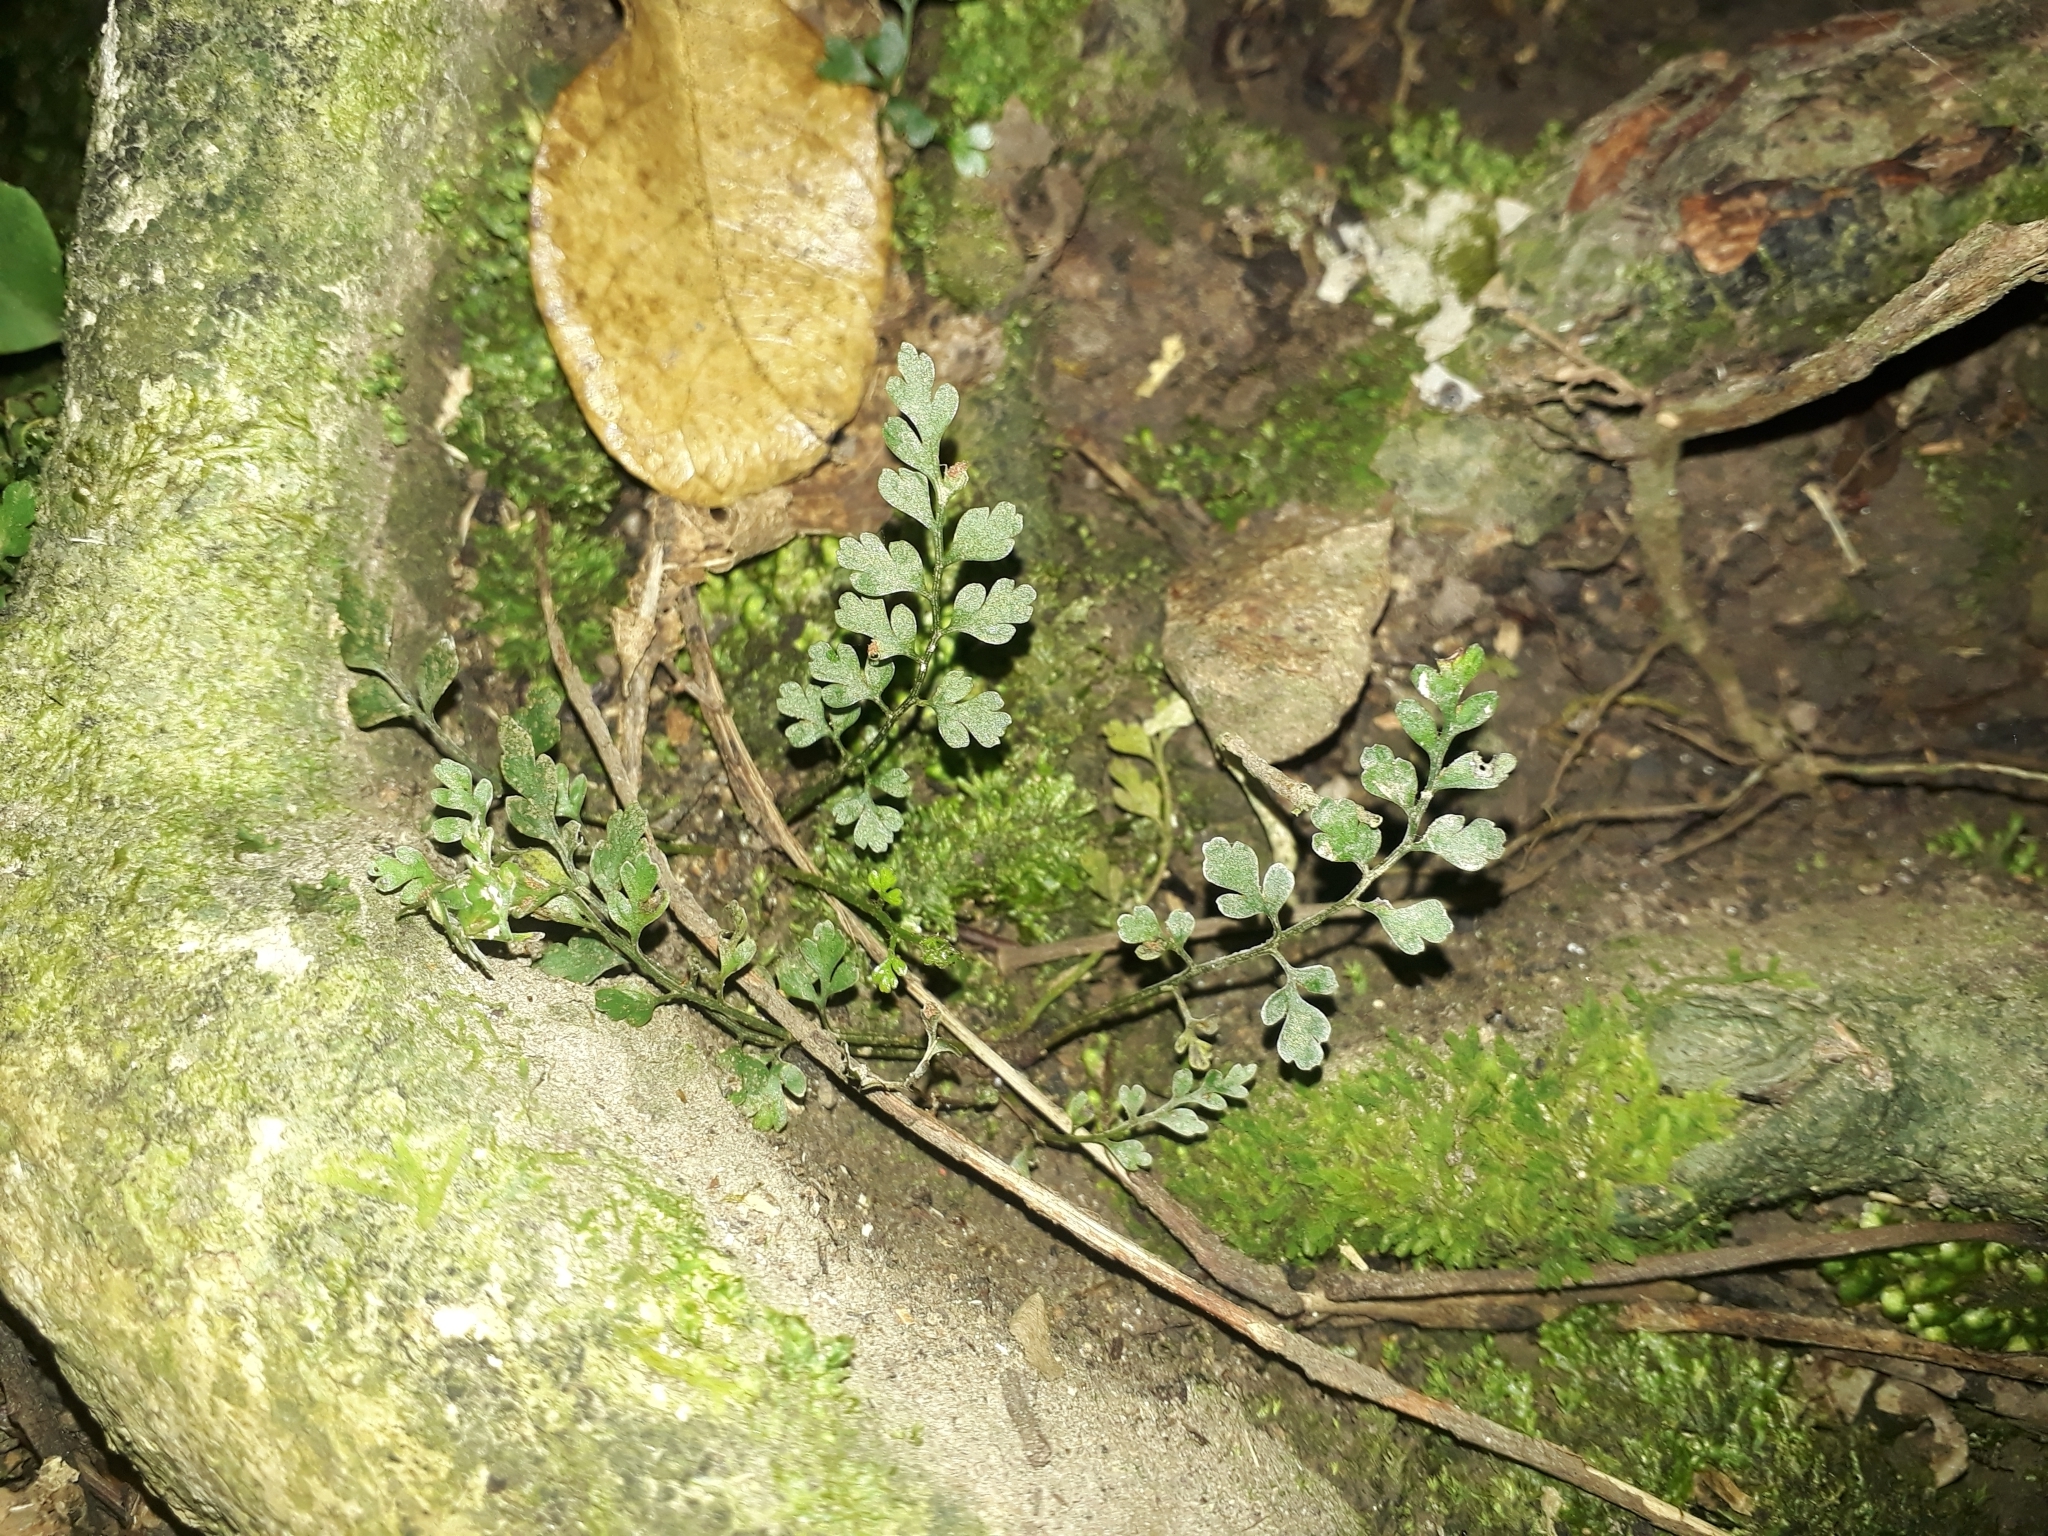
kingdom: Plantae
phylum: Tracheophyta
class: Polypodiopsida
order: Polypodiales
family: Aspleniaceae
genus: Asplenium
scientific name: Asplenium hookerianum
